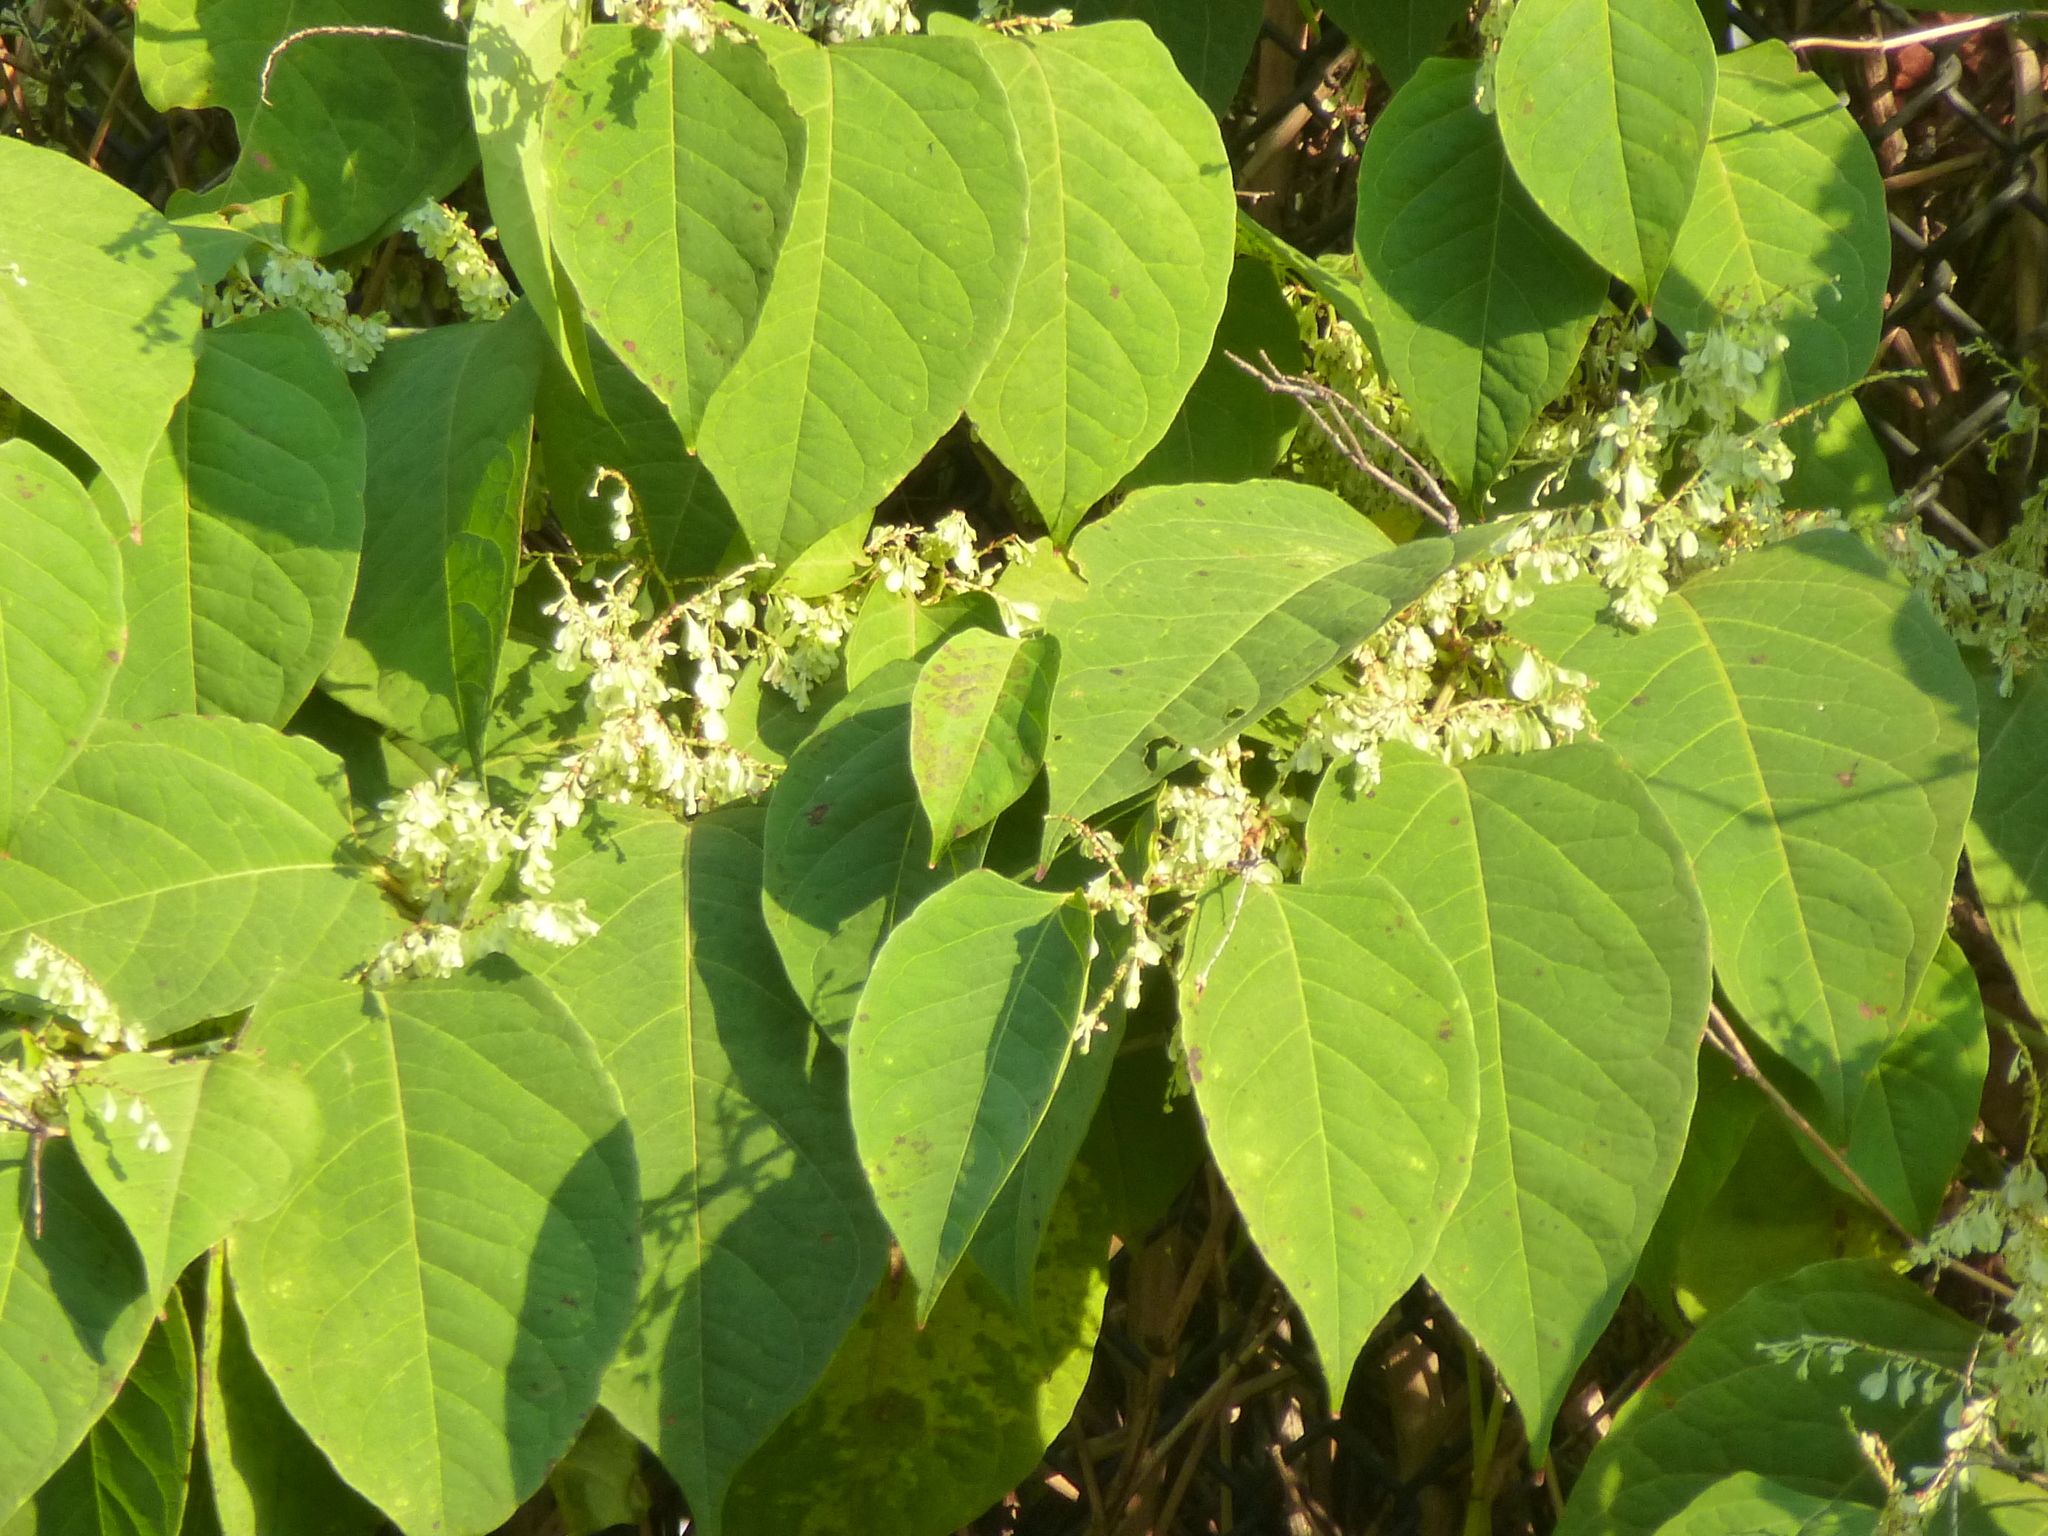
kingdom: Plantae
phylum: Tracheophyta
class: Magnoliopsida
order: Caryophyllales
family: Polygonaceae
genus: Reynoutria
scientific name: Reynoutria japonica
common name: Japanese knotweed
